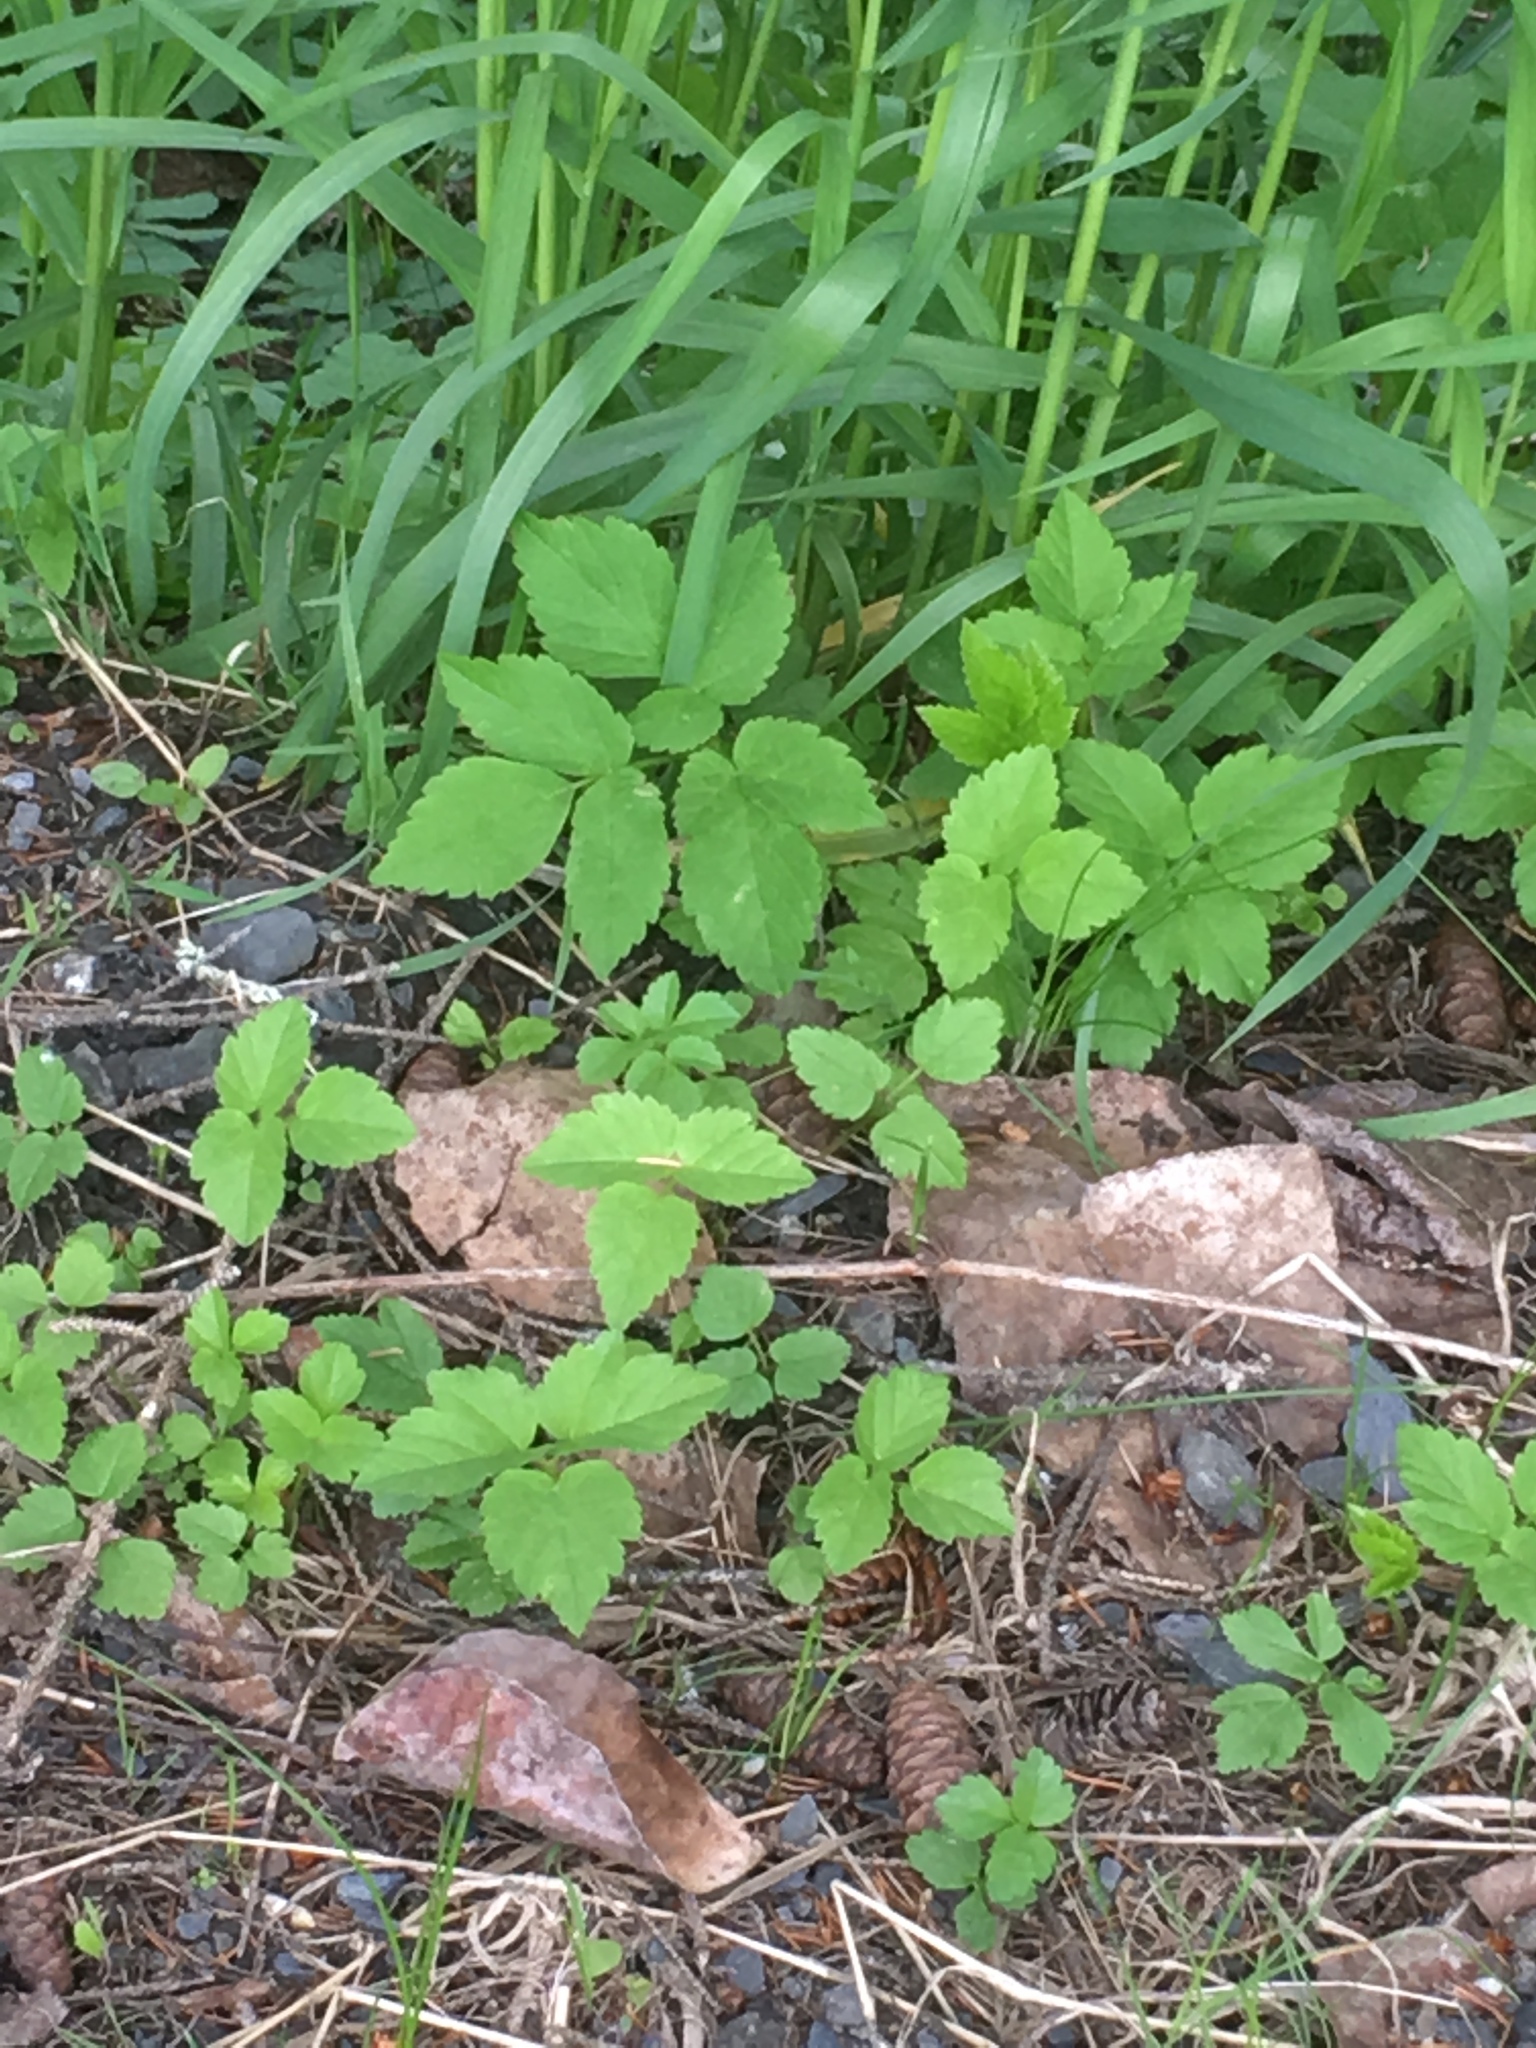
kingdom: Plantae
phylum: Tracheophyta
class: Magnoliopsida
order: Apiales
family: Apiaceae
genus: Aegopodium
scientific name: Aegopodium podagraria
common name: Ground-elder
